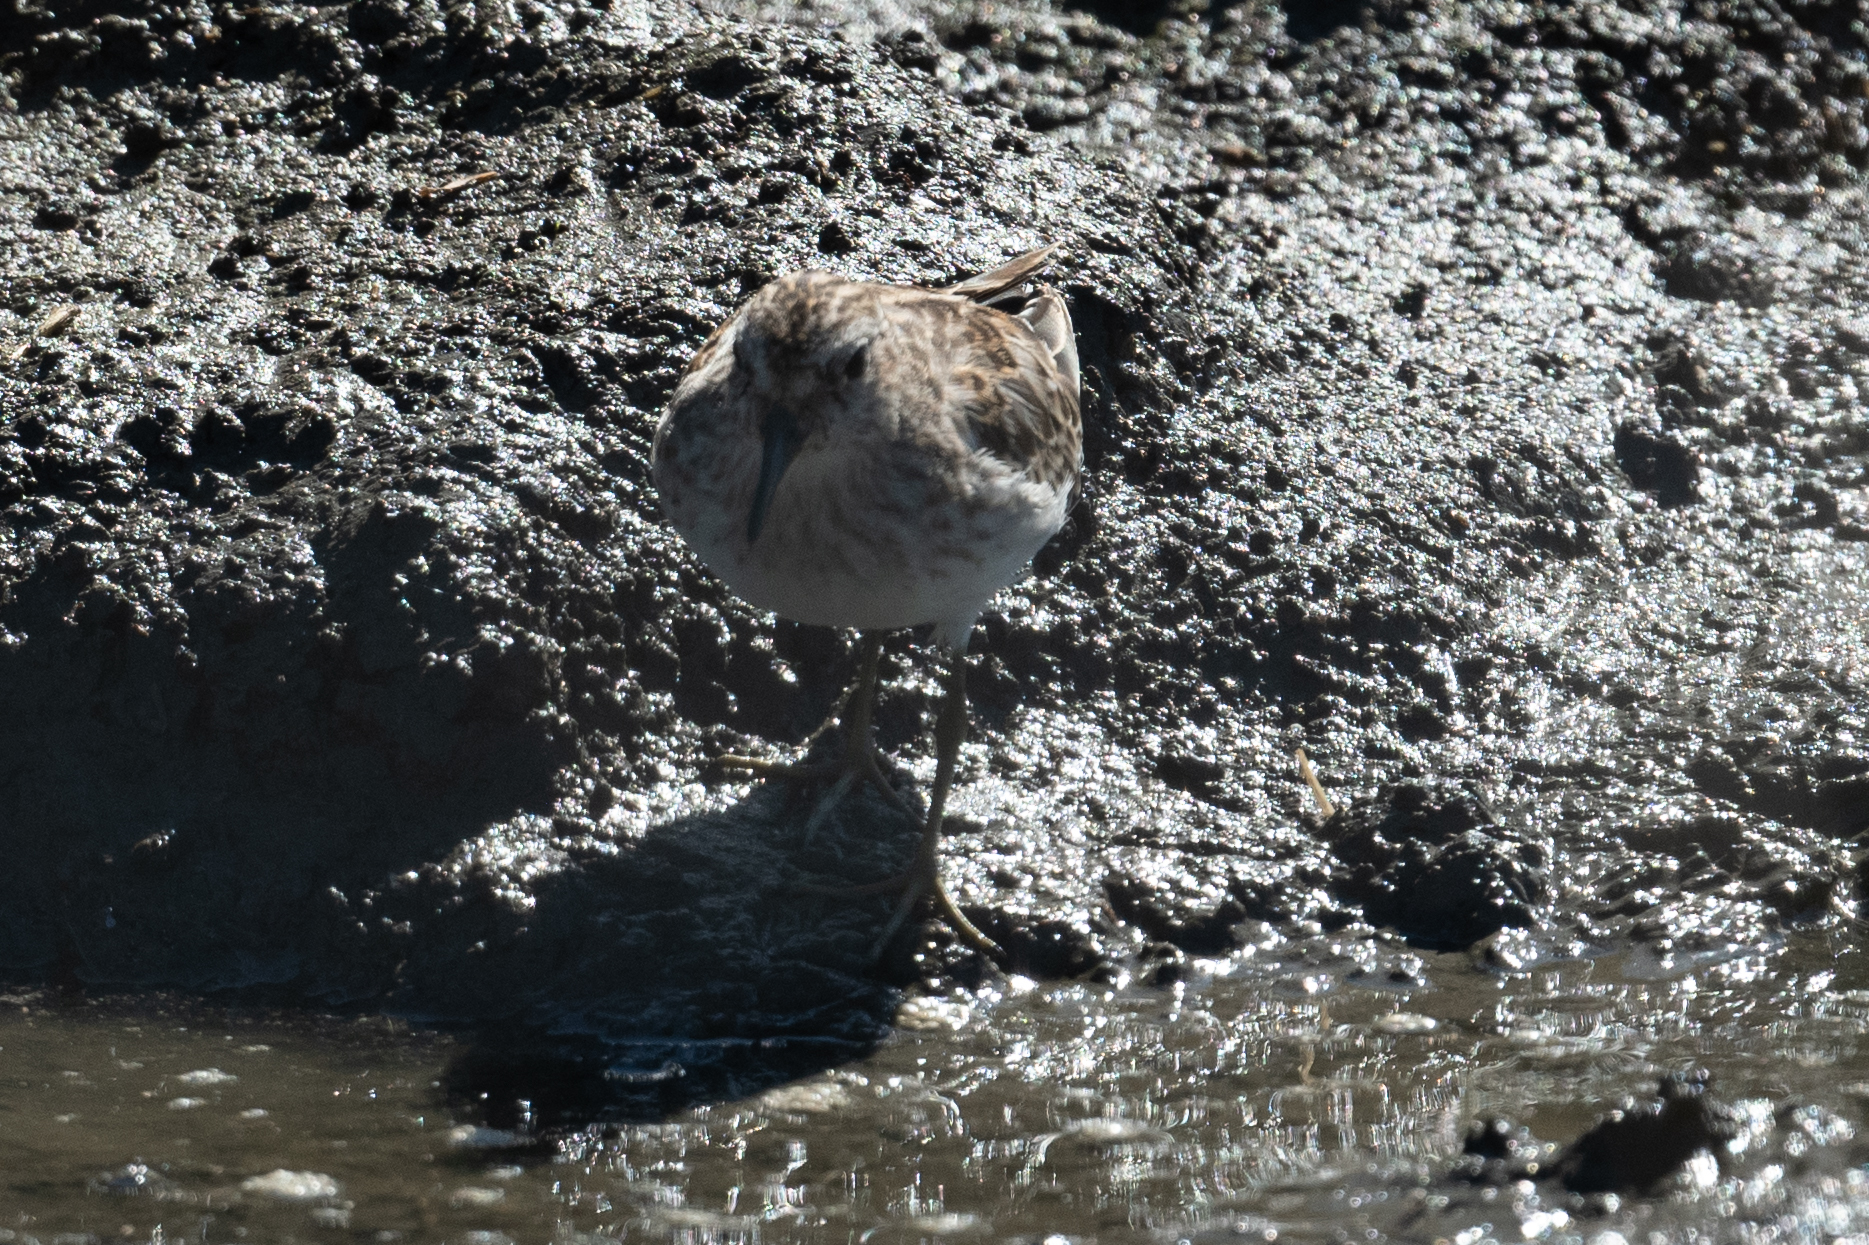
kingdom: Animalia
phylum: Chordata
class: Aves
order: Charadriiformes
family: Scolopacidae
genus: Calidris
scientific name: Calidris minutilla
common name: Least sandpiper
